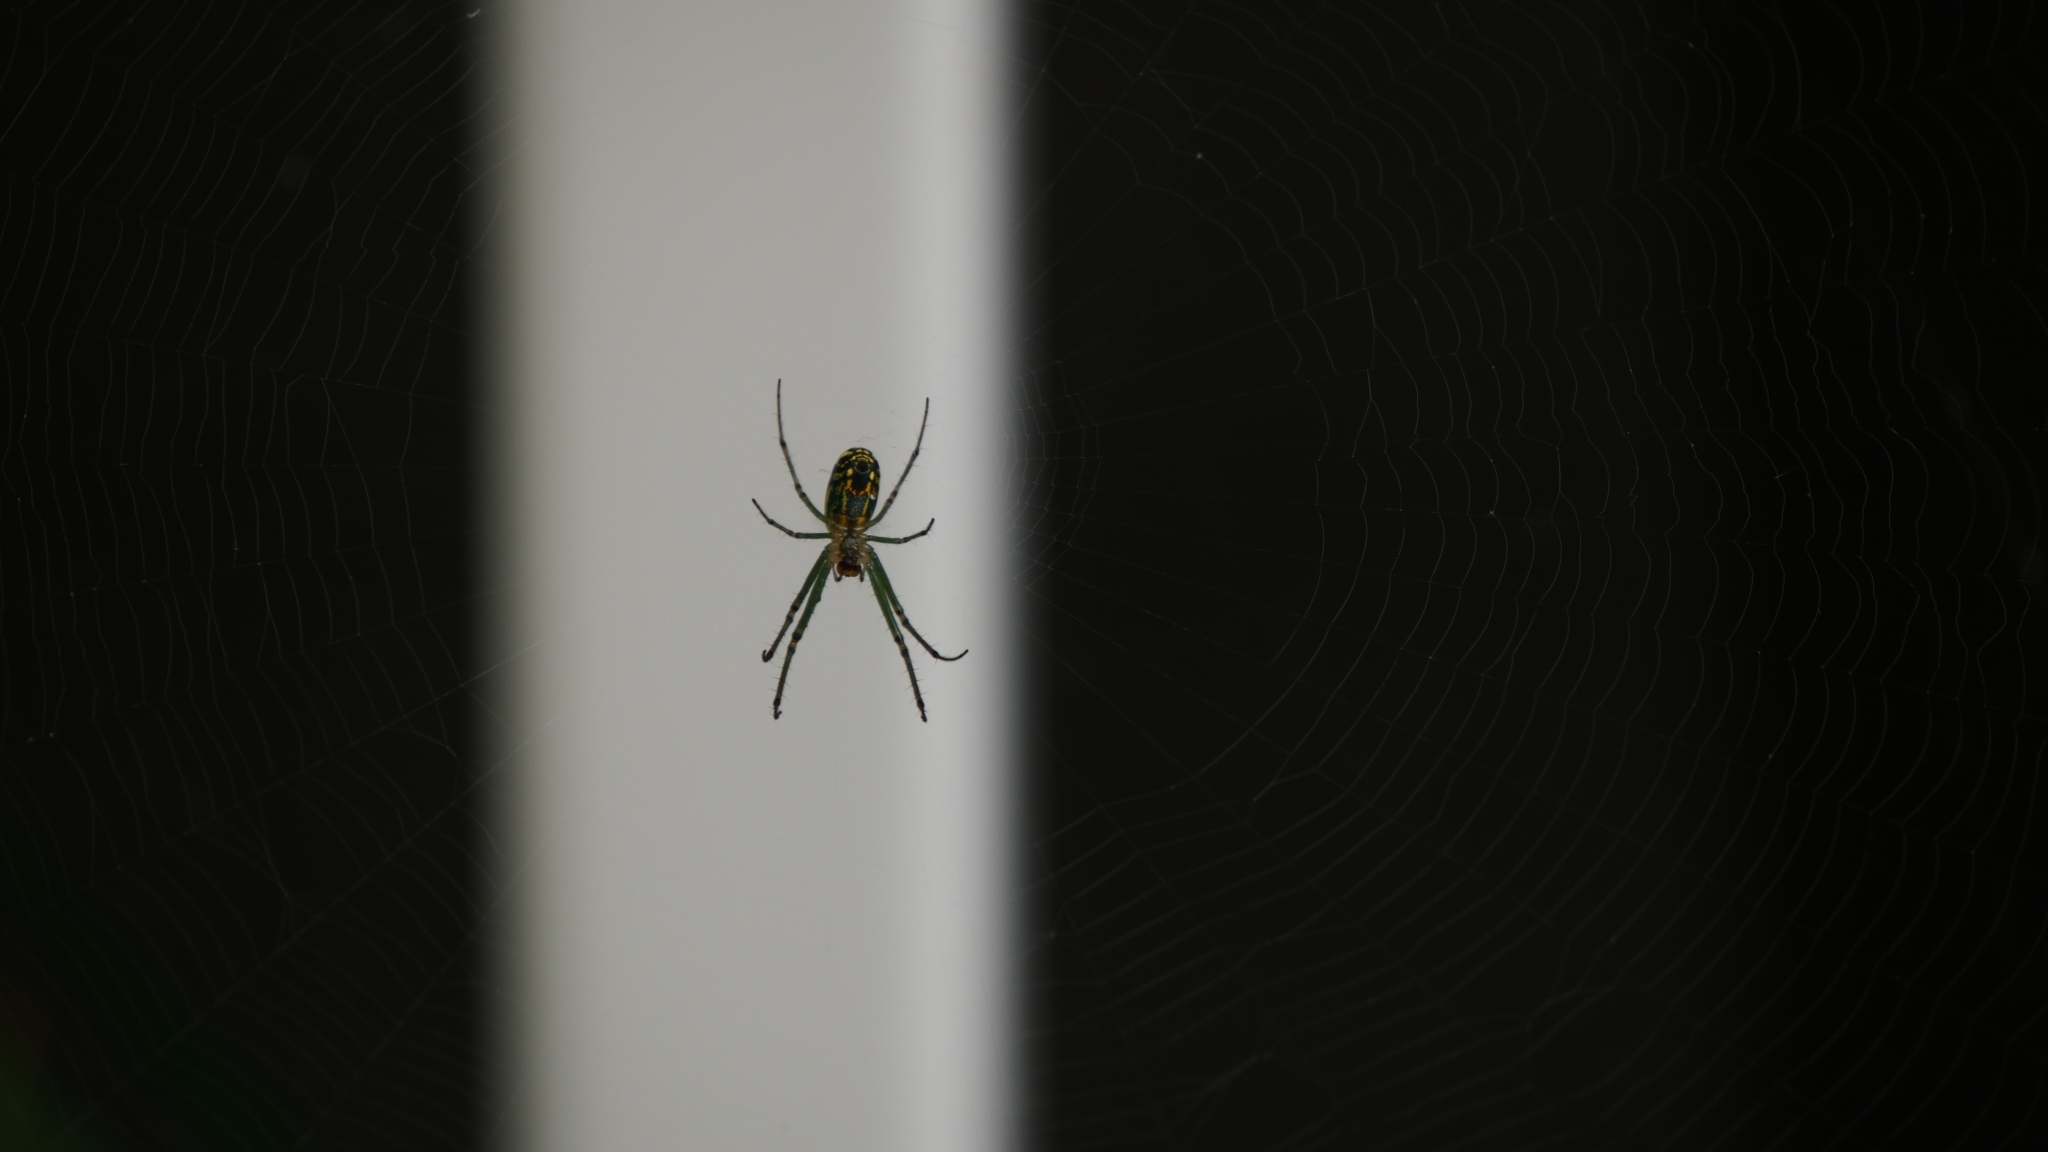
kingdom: Animalia
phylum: Arthropoda
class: Arachnida
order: Araneae
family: Tetragnathidae
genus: Leucauge
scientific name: Leucauge venusta
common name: Longjawed orb weavers
